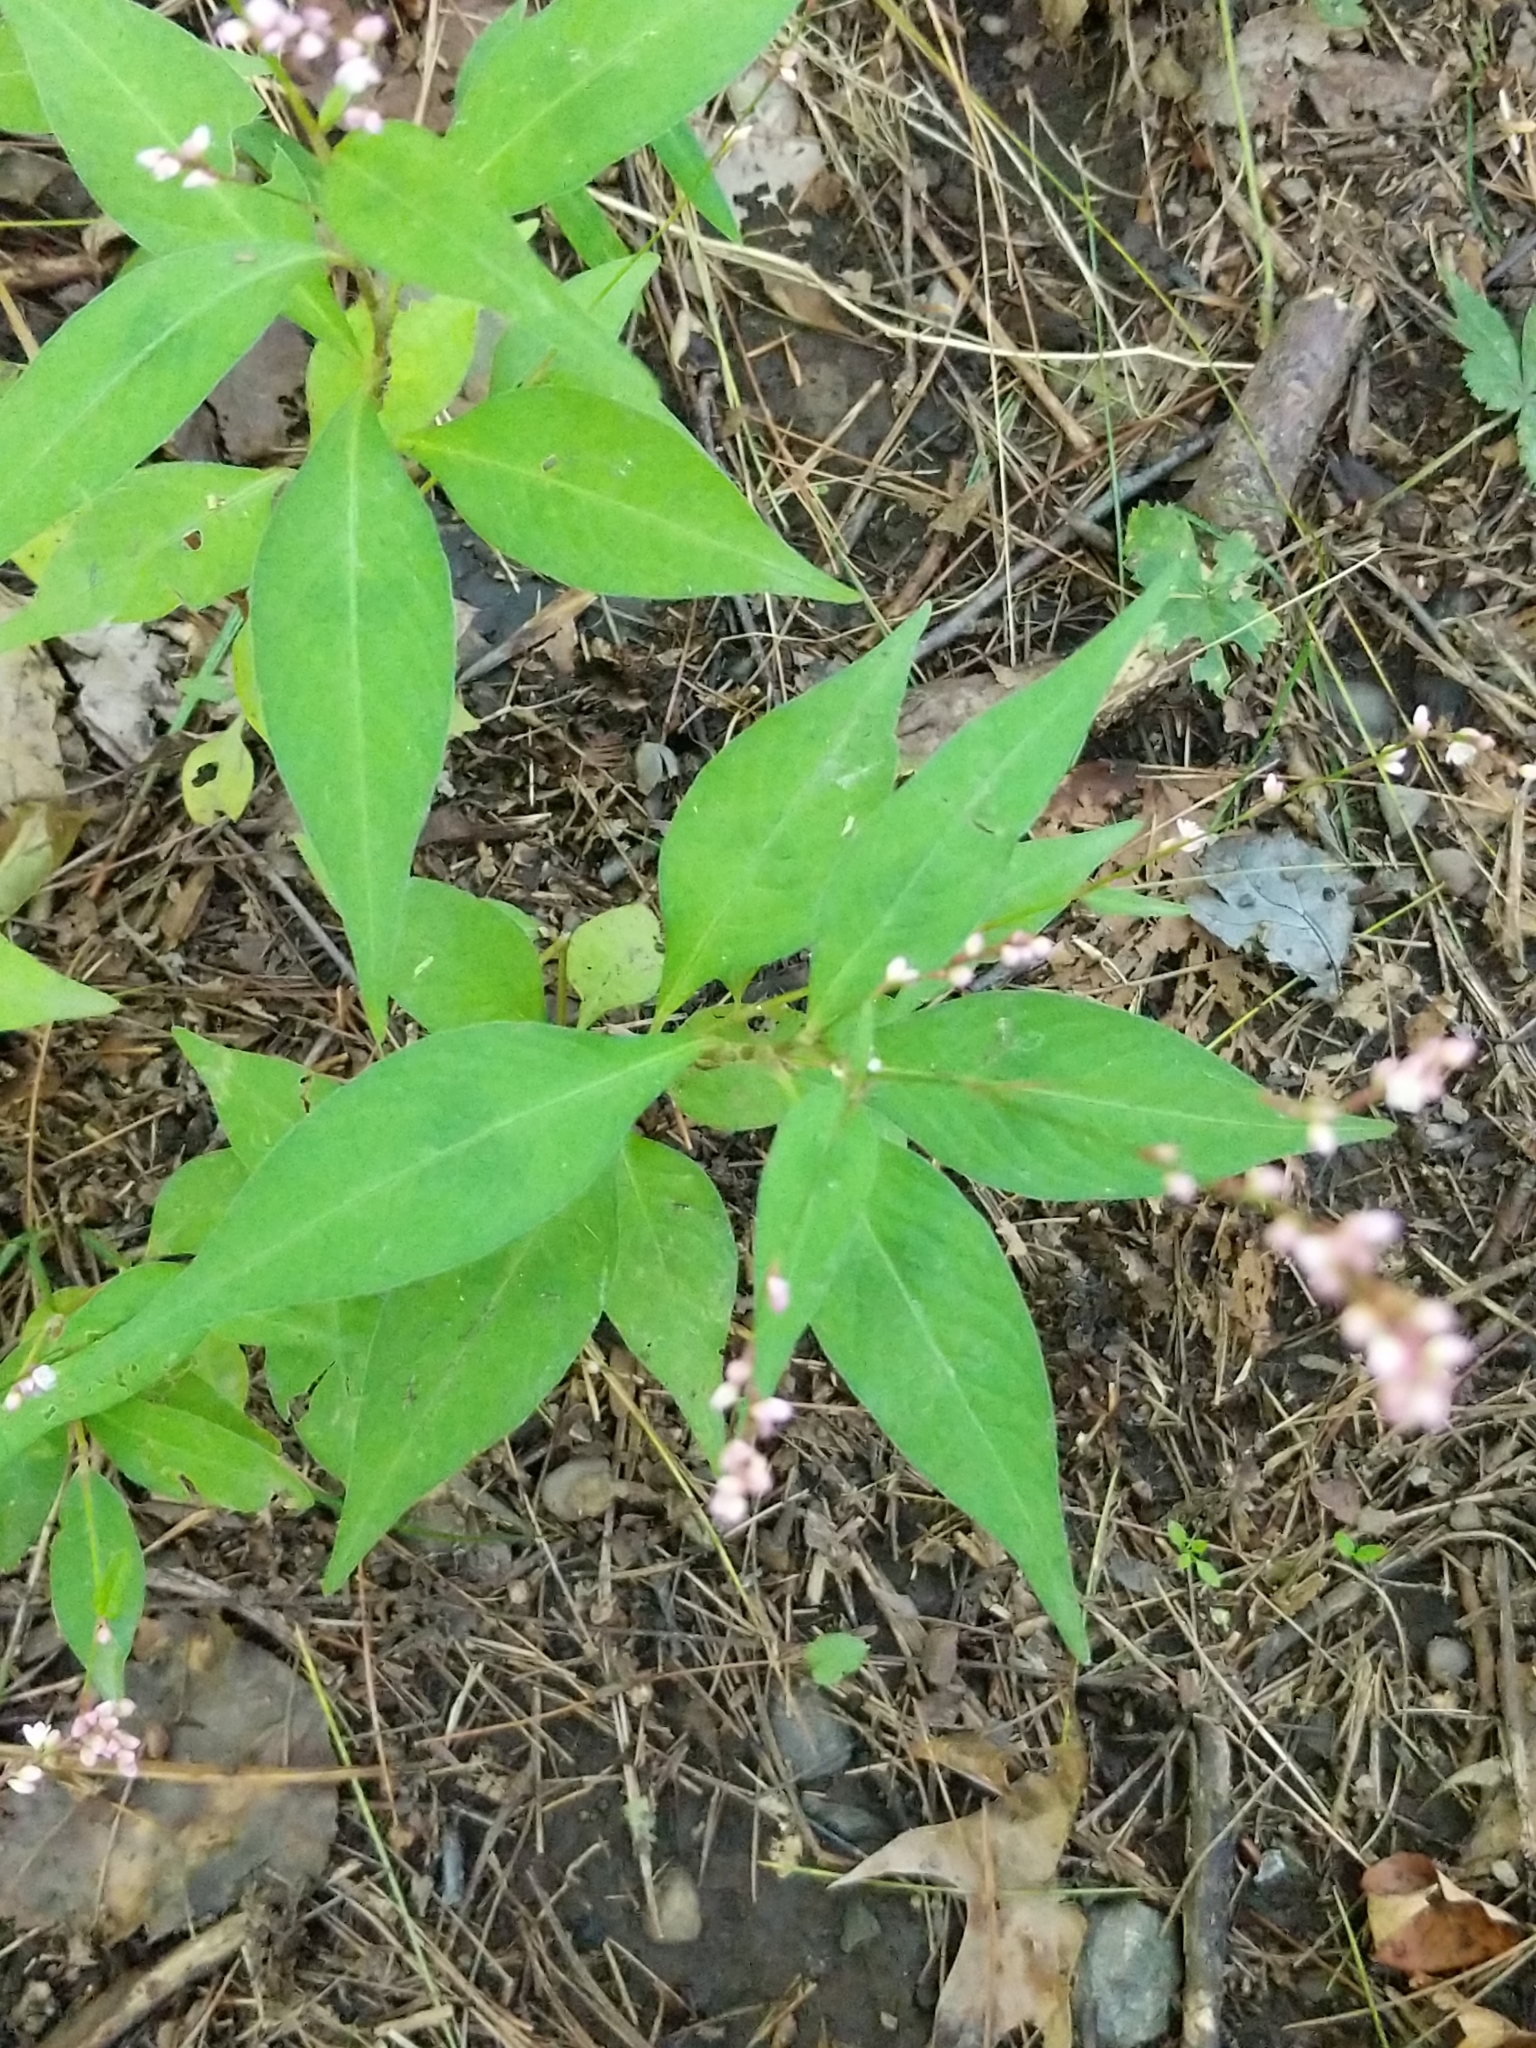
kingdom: Plantae
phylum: Tracheophyta
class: Magnoliopsida
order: Caryophyllales
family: Polygonaceae
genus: Persicaria
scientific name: Persicaria longiseta
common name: Bristly lady's-thumb
